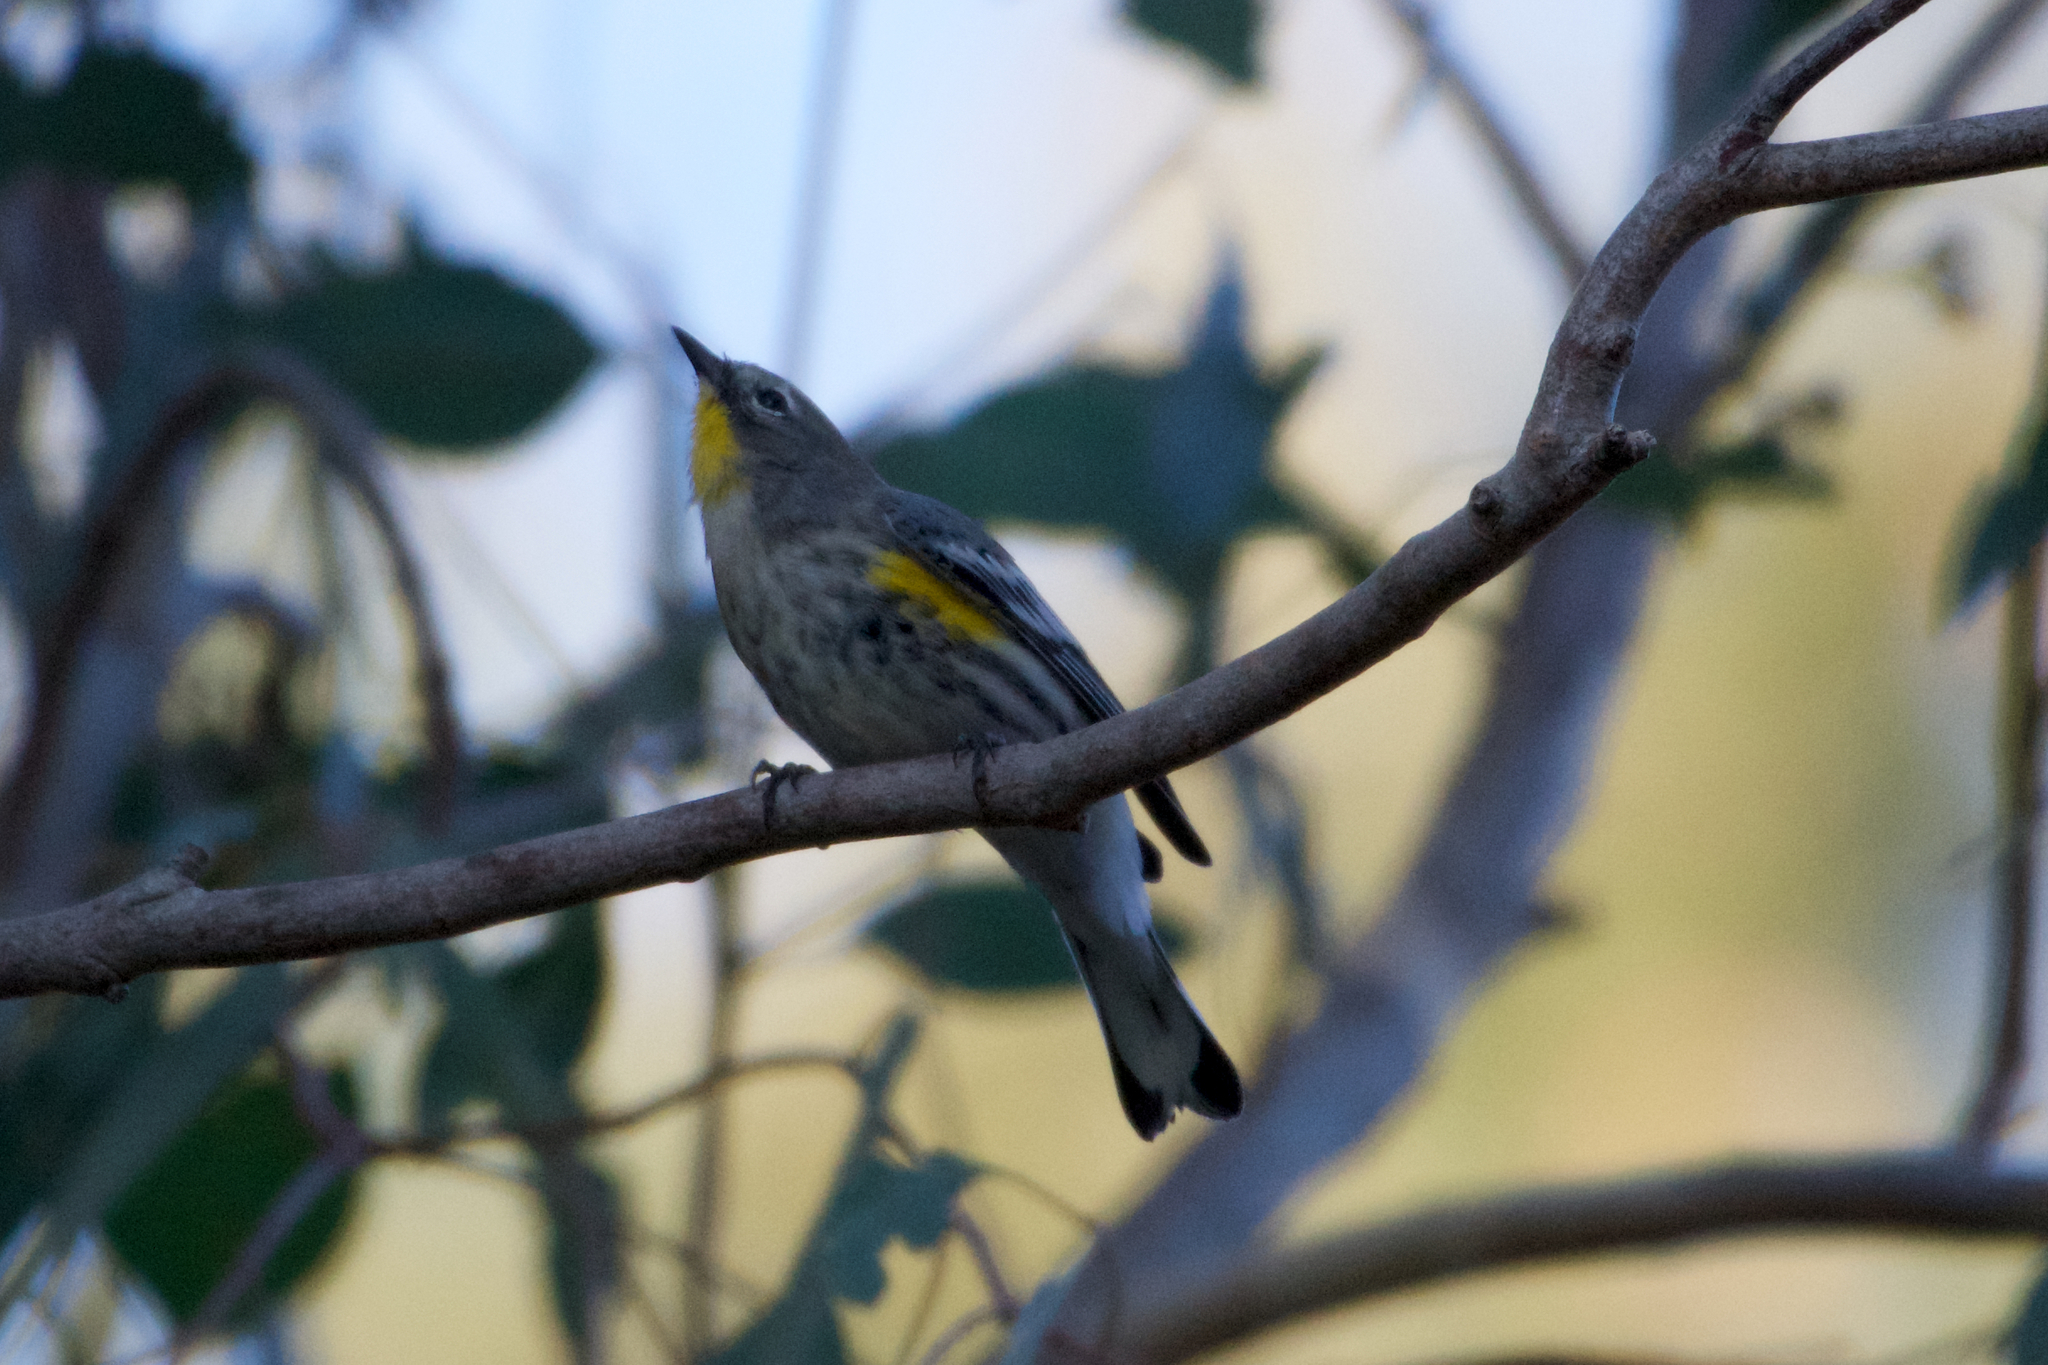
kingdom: Animalia
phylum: Chordata
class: Aves
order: Passeriformes
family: Parulidae
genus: Setophaga
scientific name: Setophaga coronata
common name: Myrtle warbler
